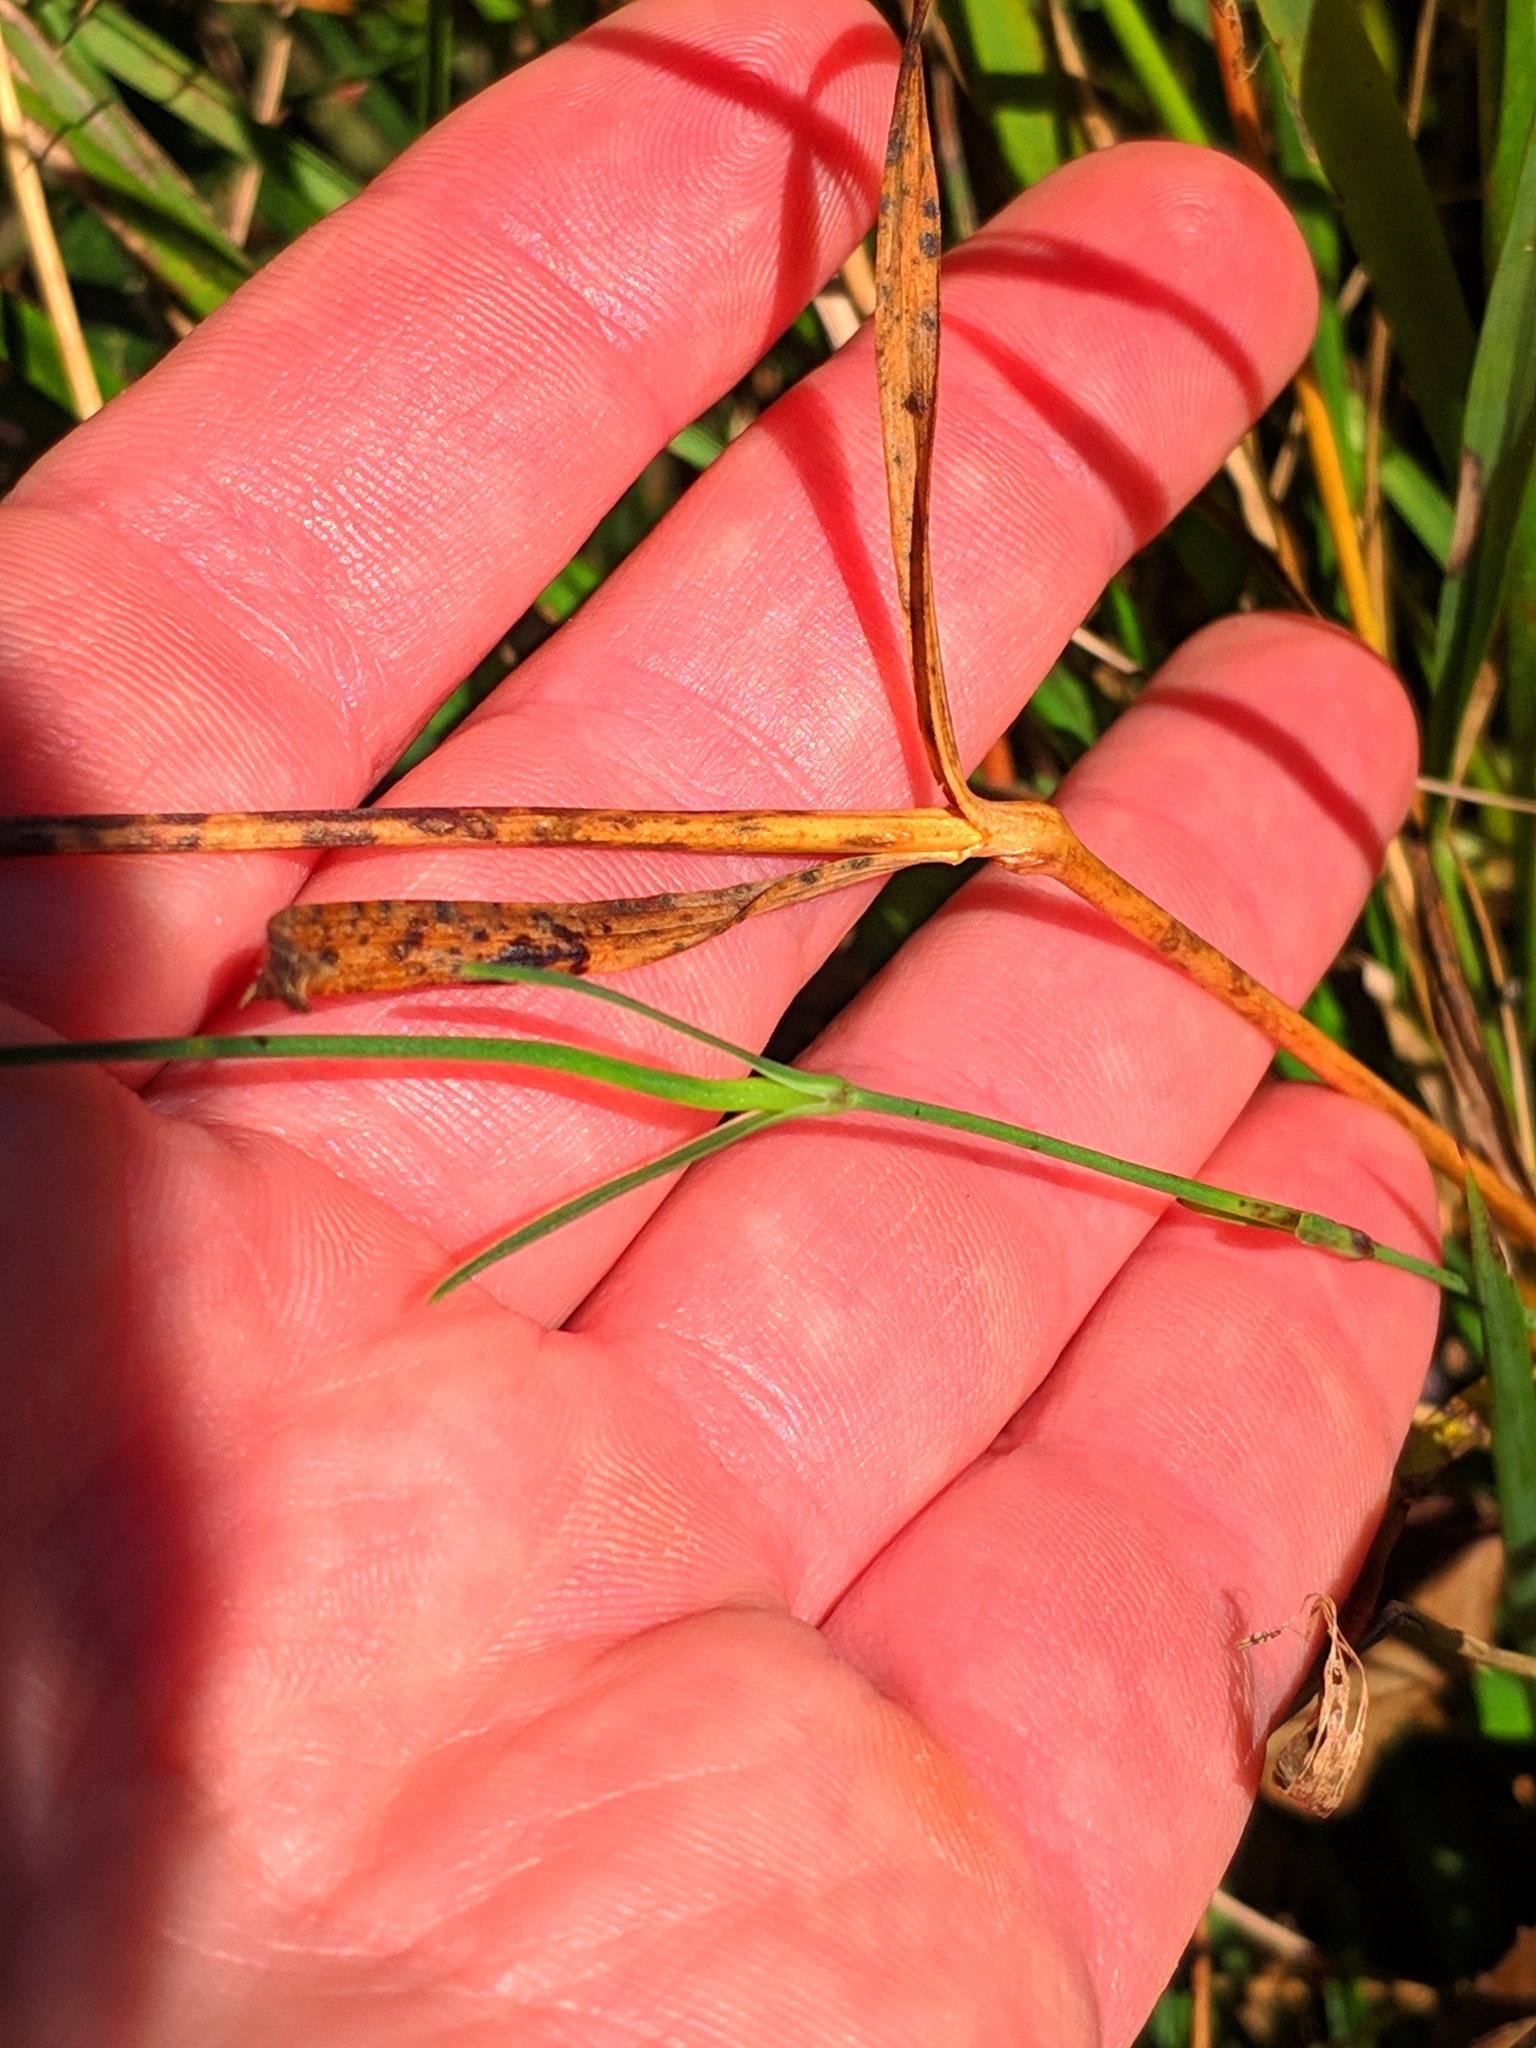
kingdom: Plantae
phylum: Tracheophyta
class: Magnoliopsida
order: Caryophyllales
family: Caryophyllaceae
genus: Dianthus
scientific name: Dianthus hyssopifolius
